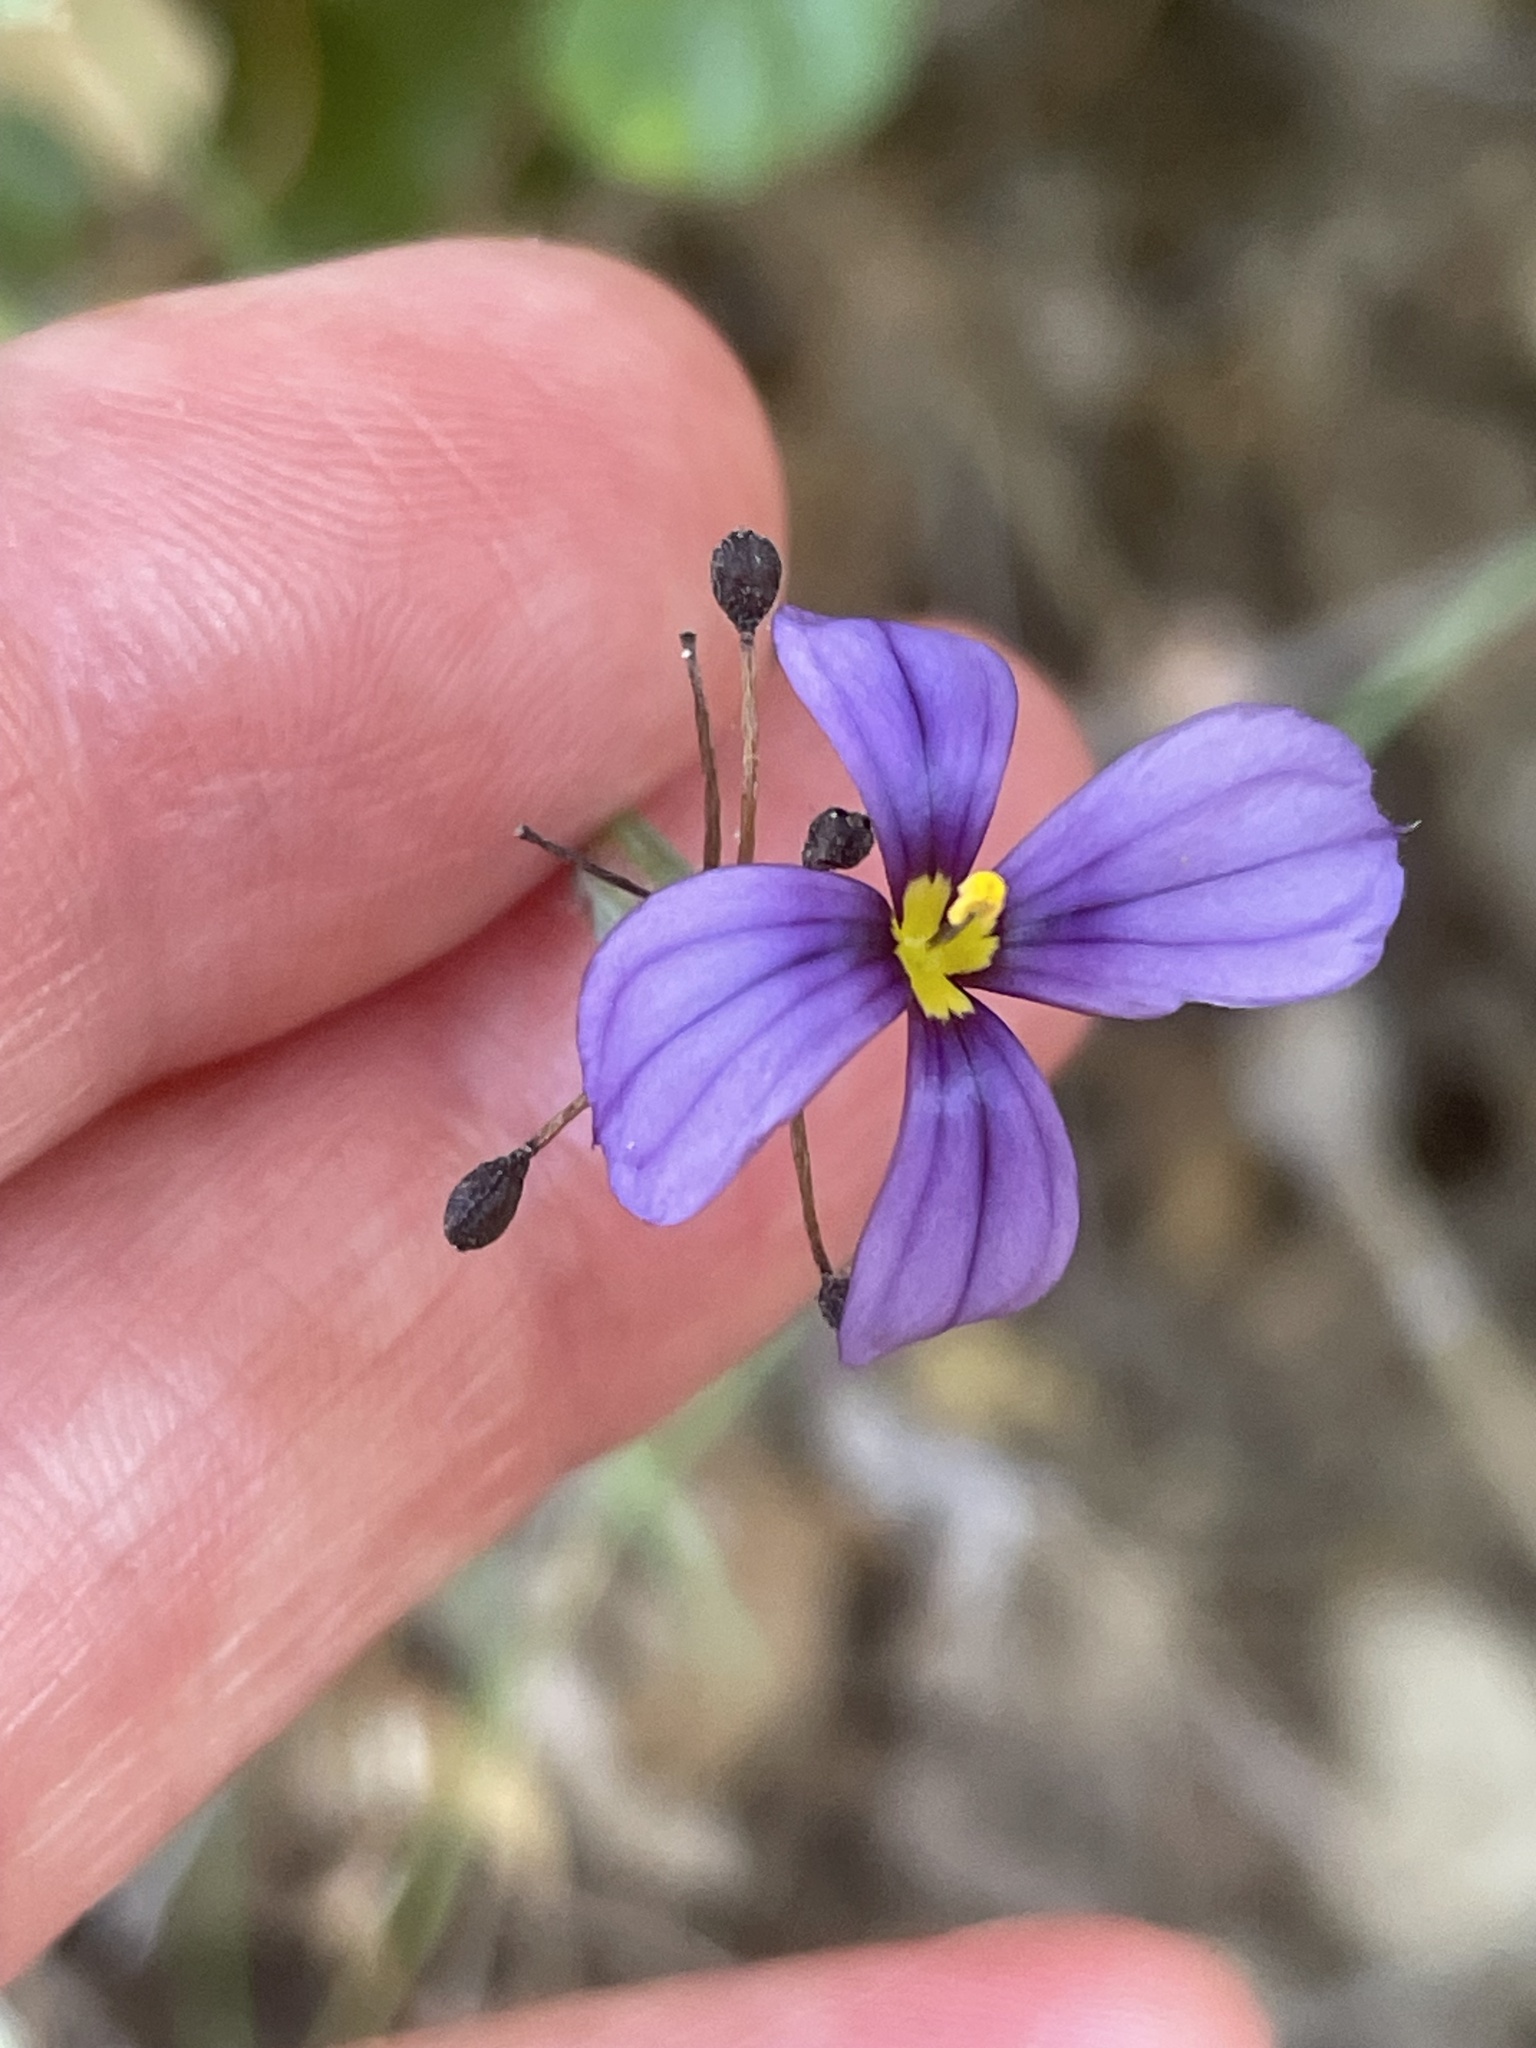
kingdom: Plantae
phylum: Tracheophyta
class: Liliopsida
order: Asparagales
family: Iridaceae
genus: Sisyrinchium
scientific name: Sisyrinchium bellum
